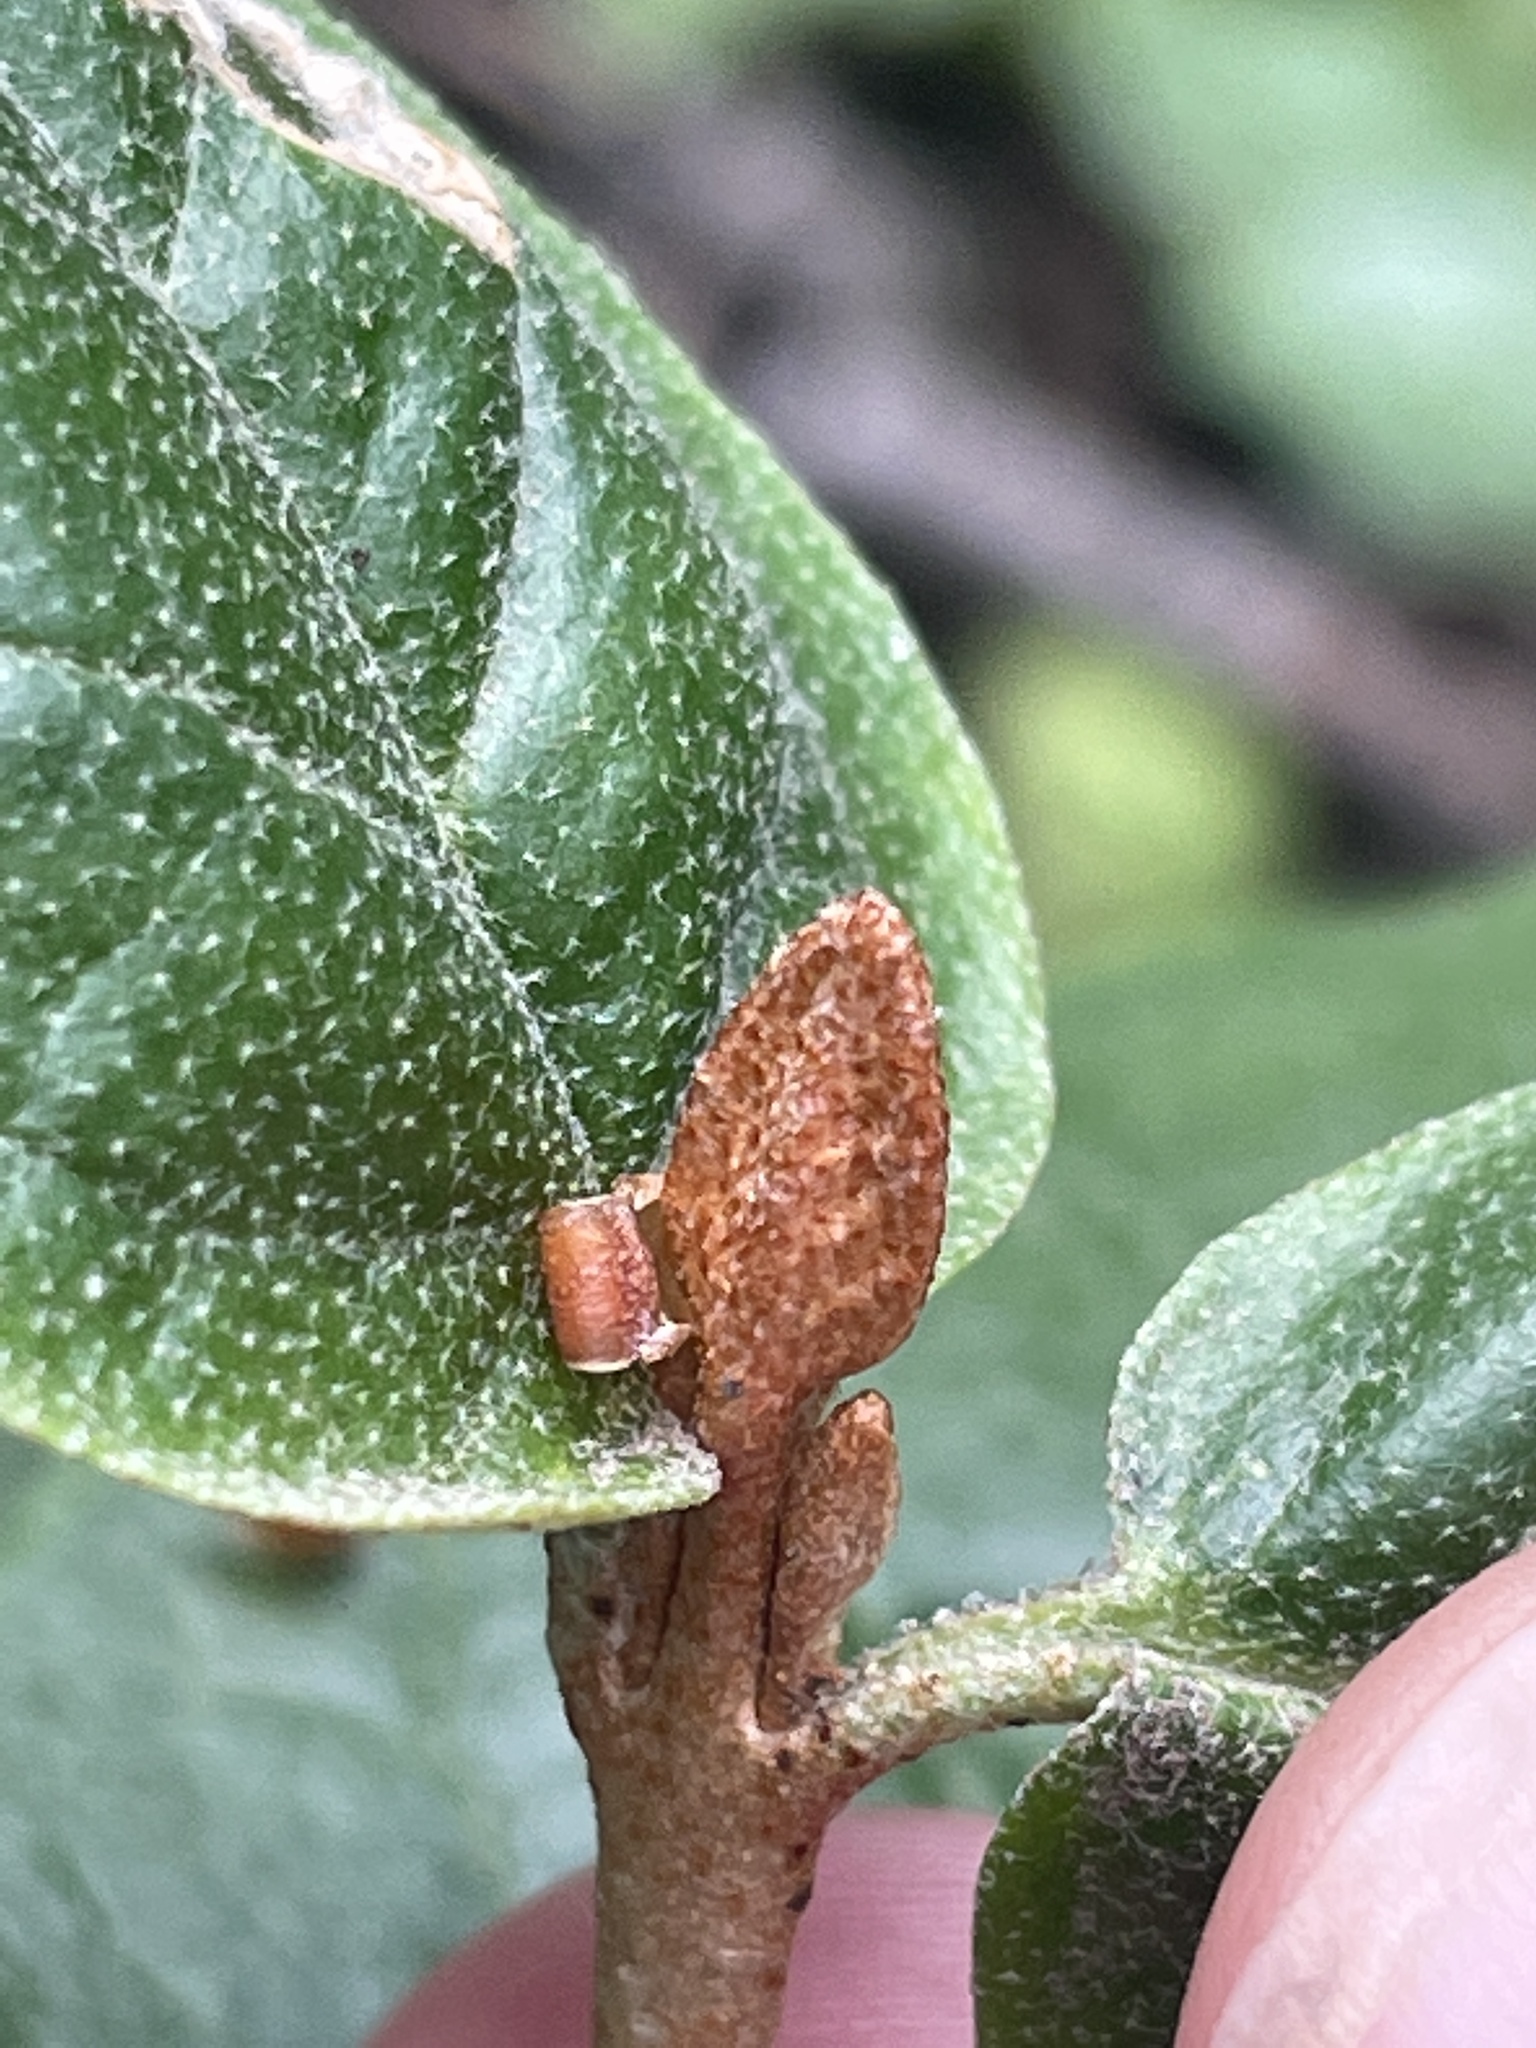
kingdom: Plantae
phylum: Tracheophyta
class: Magnoliopsida
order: Rosales
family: Elaeagnaceae
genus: Shepherdia
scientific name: Shepherdia canadensis
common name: Soapberry
